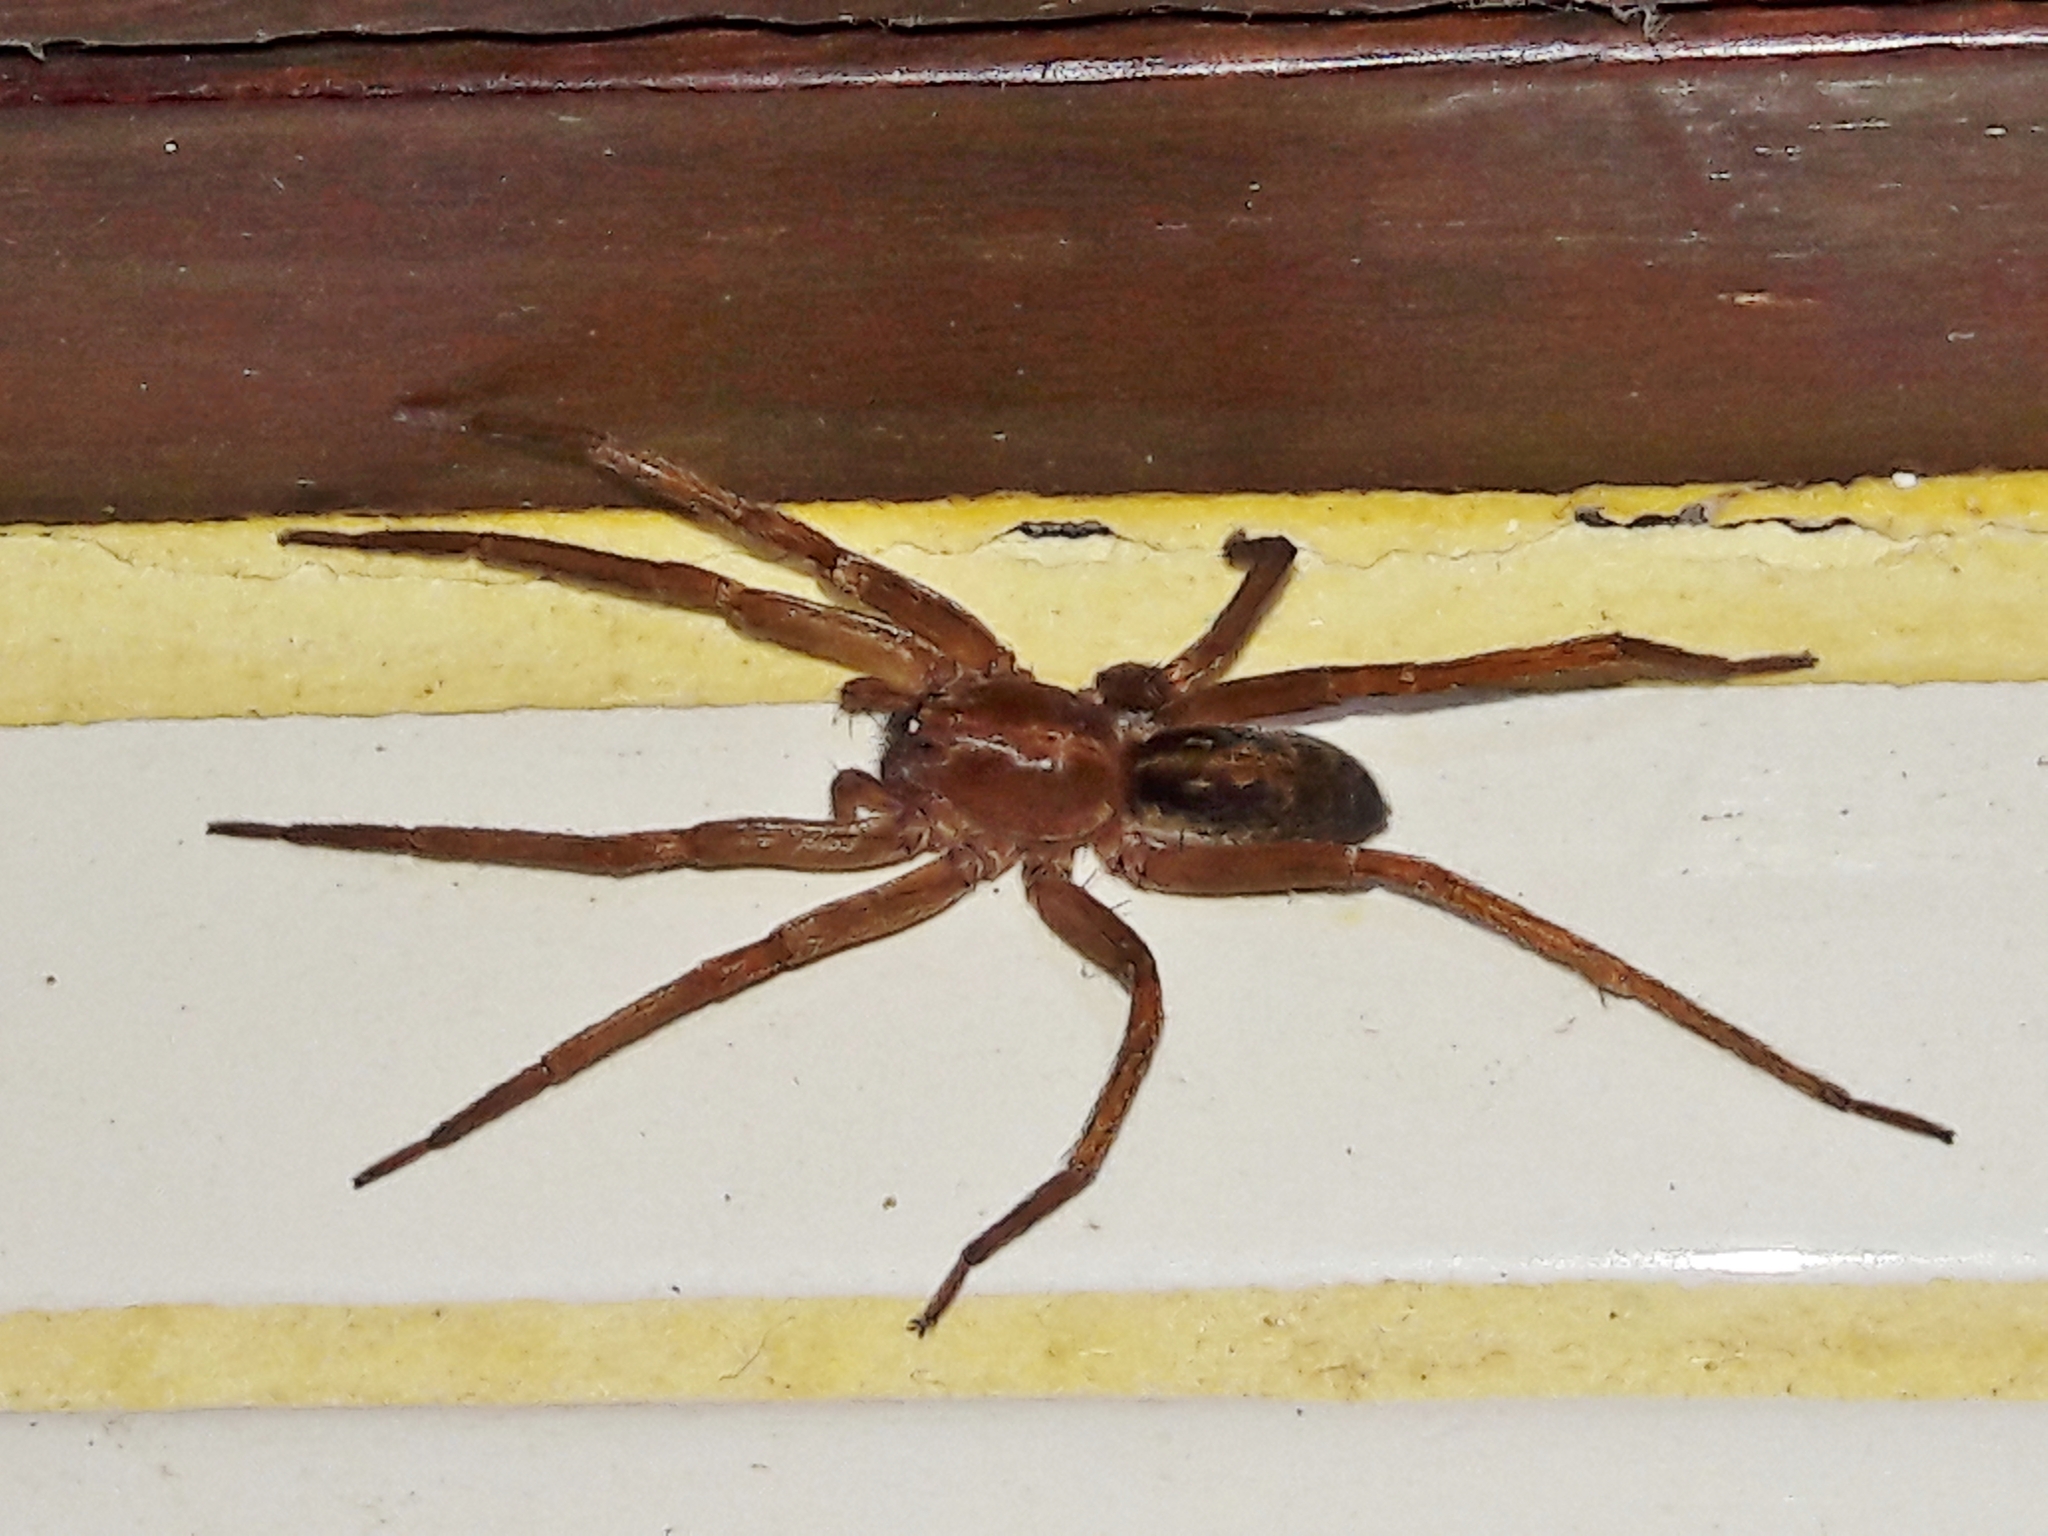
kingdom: Animalia
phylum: Arthropoda
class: Arachnida
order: Araneae
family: Ctenidae
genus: Isoctenus
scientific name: Isoctenus coxalis
